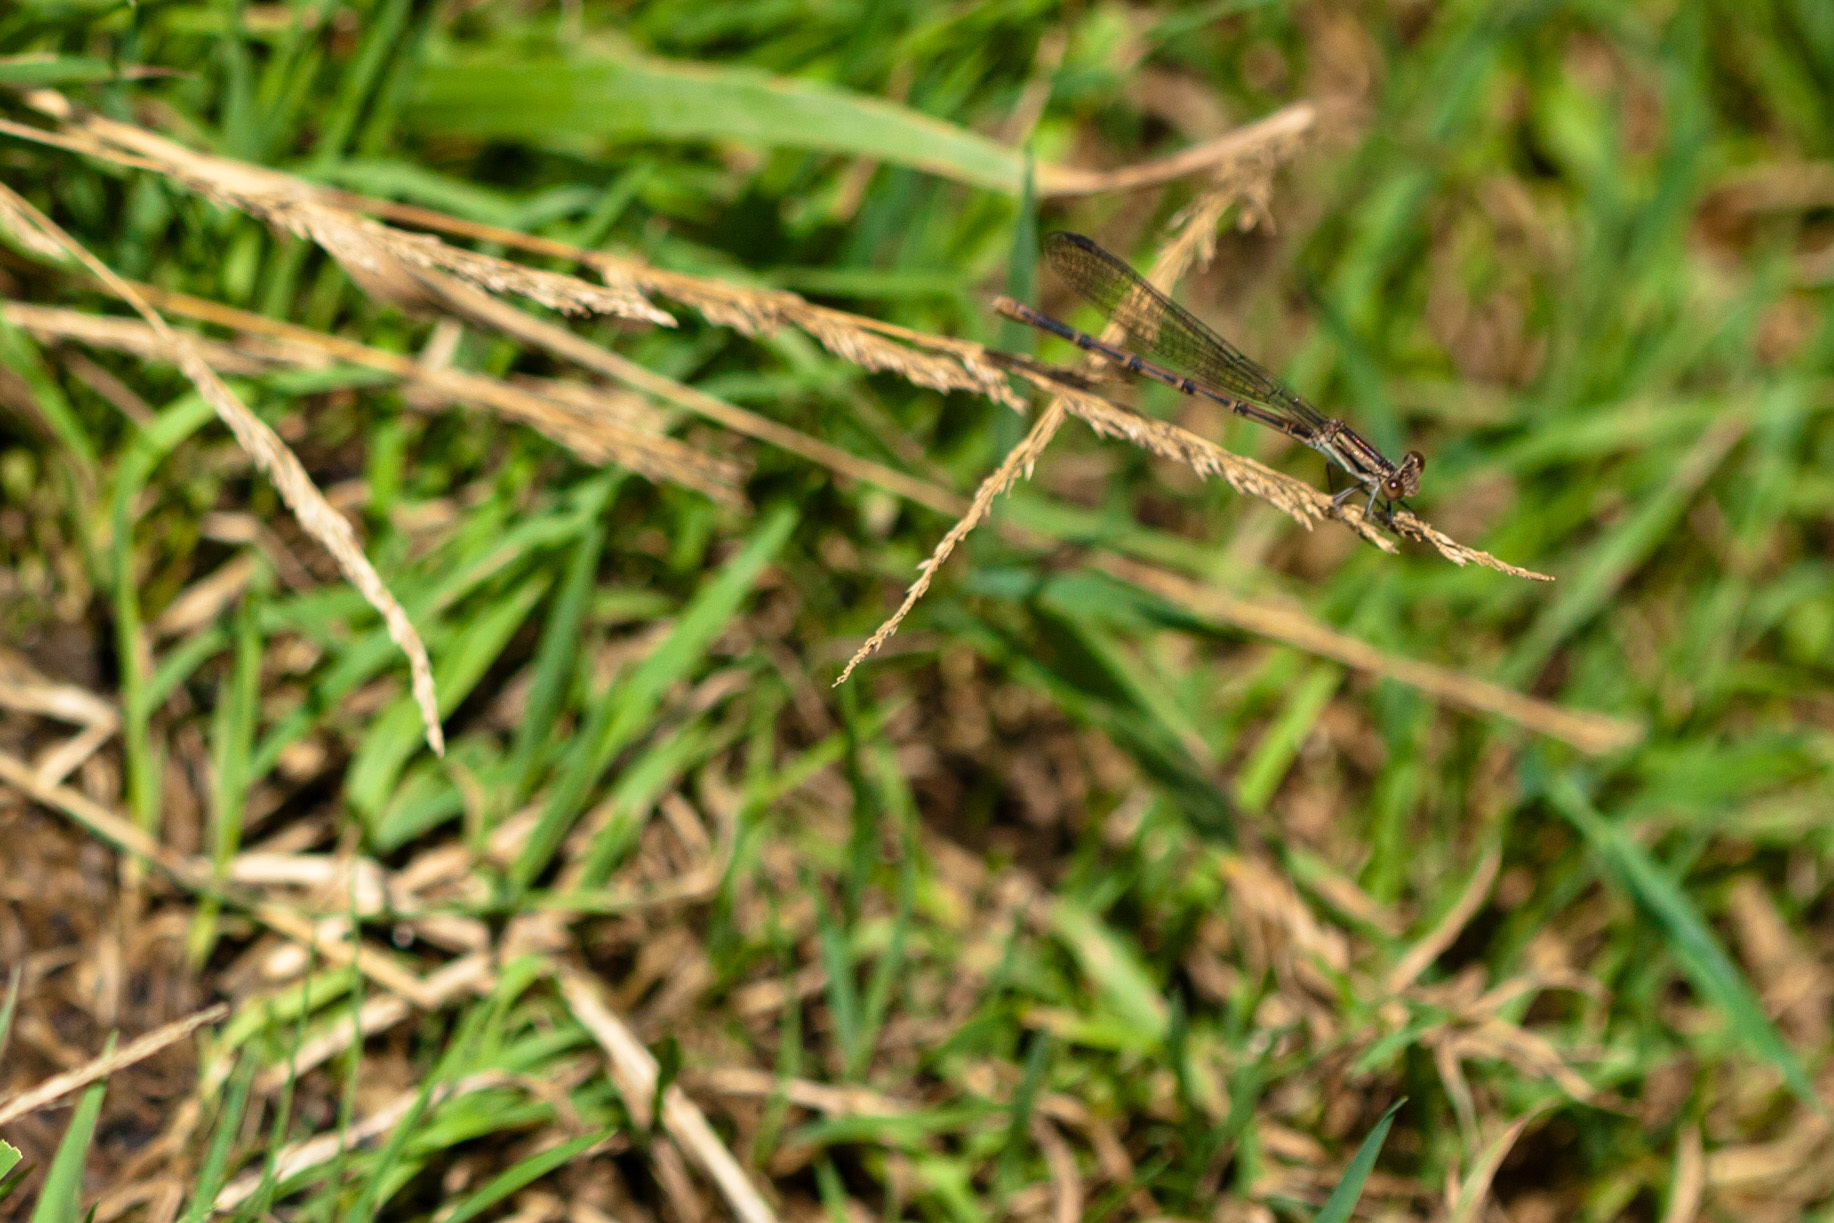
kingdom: Animalia
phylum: Arthropoda
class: Insecta
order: Odonata
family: Coenagrionidae
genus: Argia
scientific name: Argia fumipennis
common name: Variable dancer
